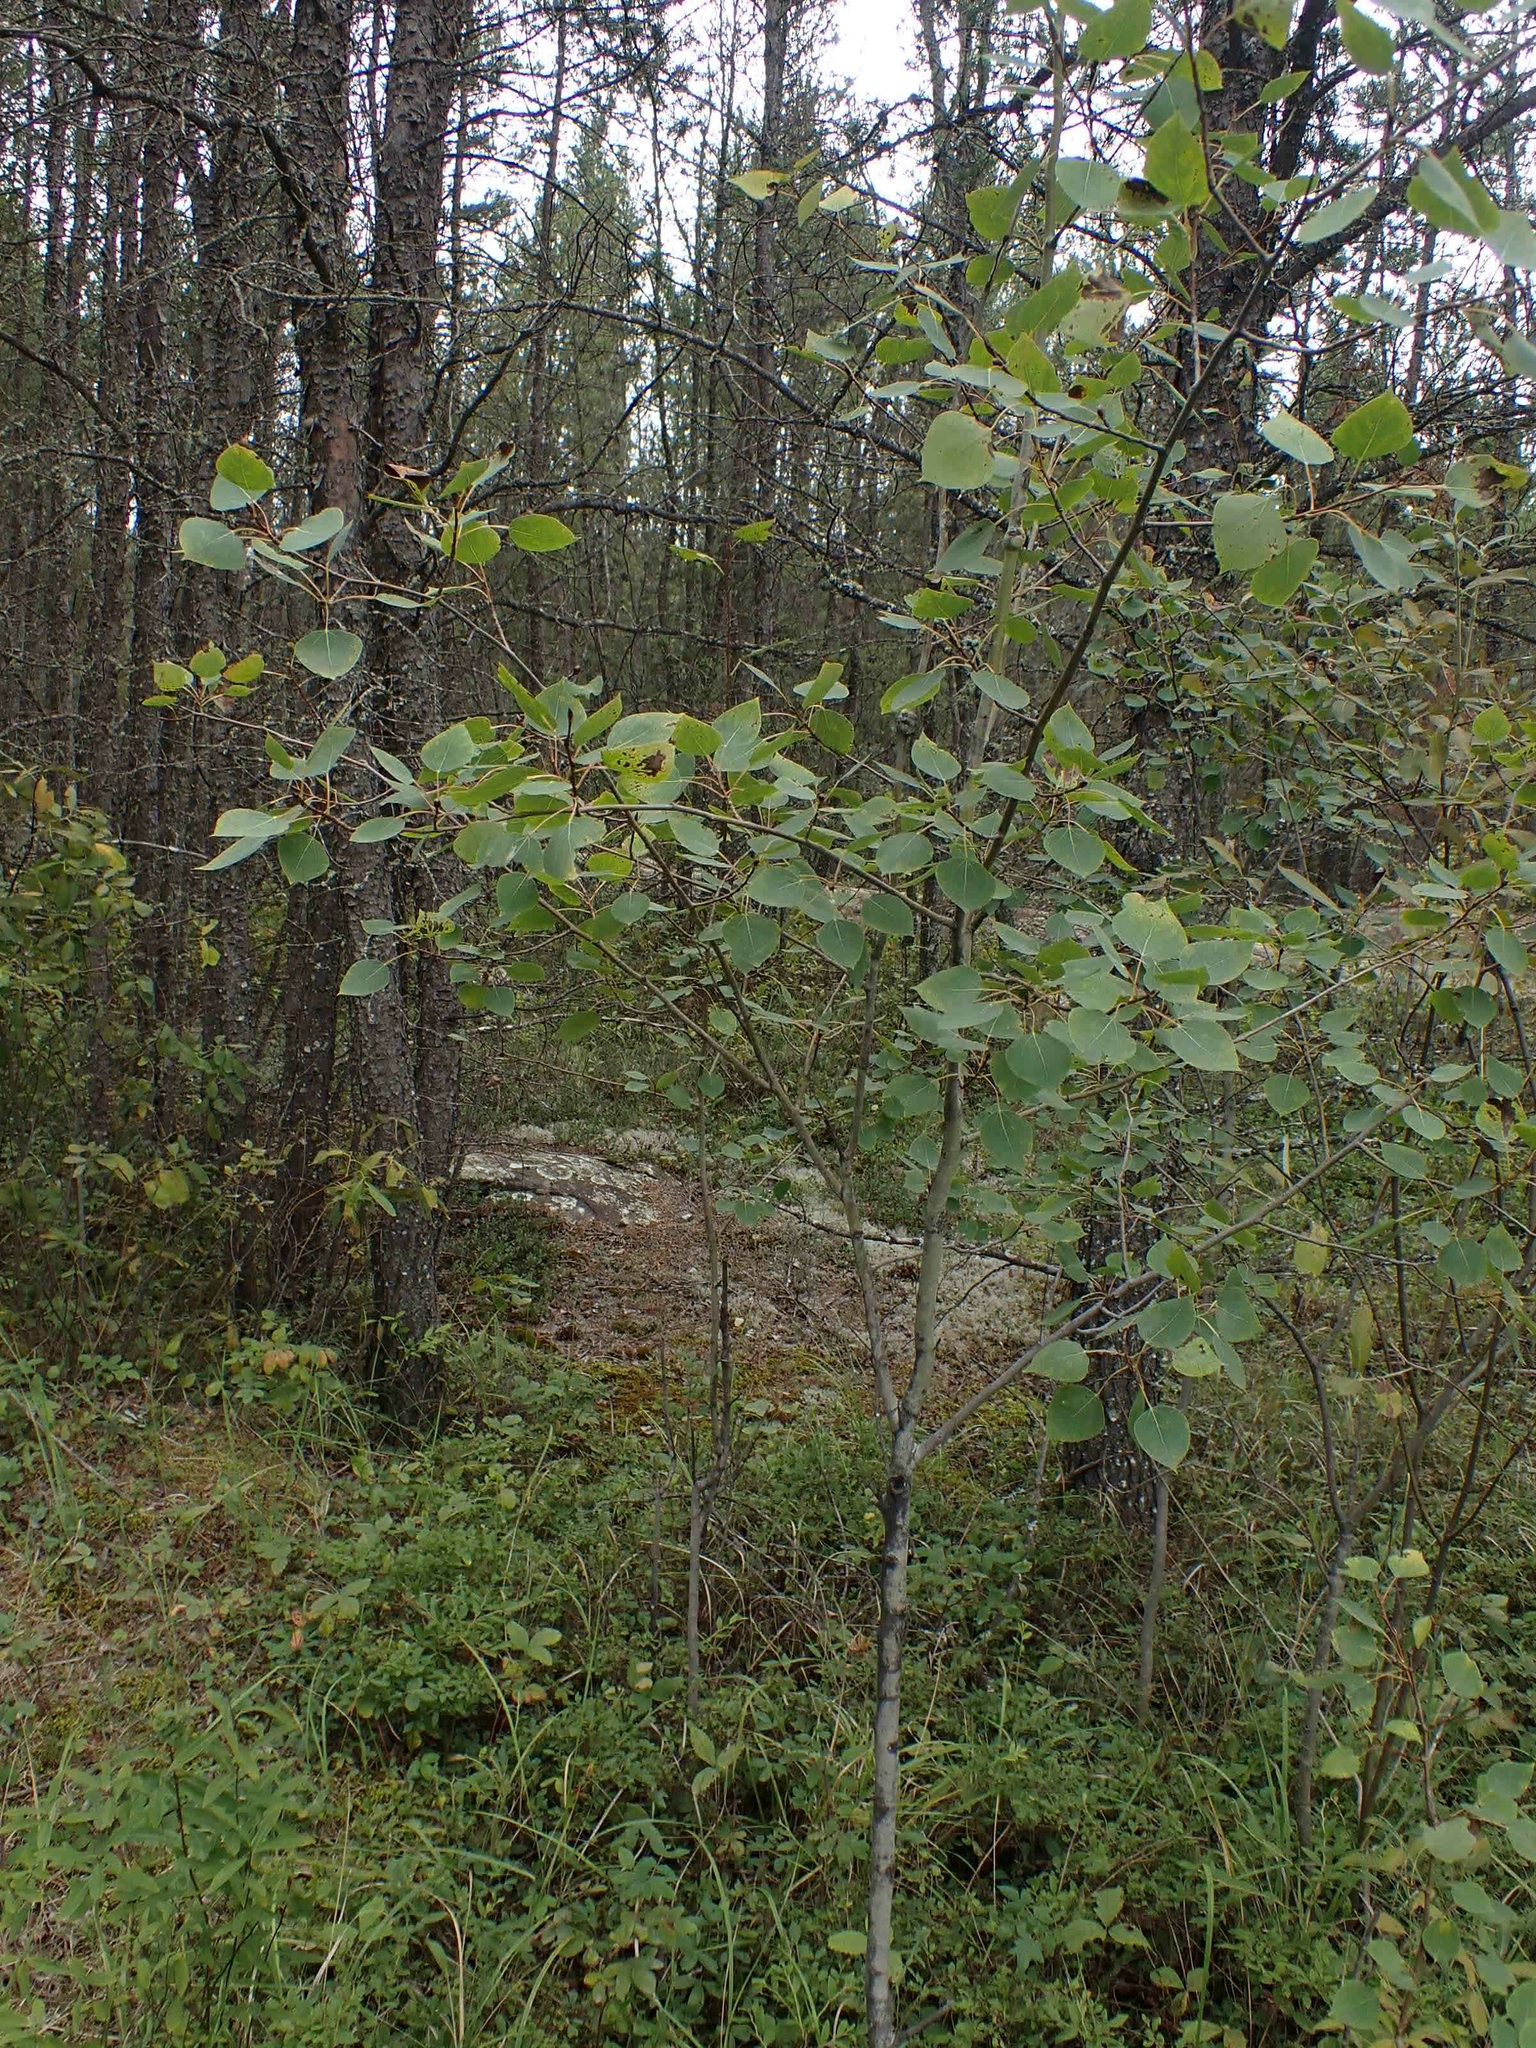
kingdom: Plantae
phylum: Tracheophyta
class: Magnoliopsida
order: Malpighiales
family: Salicaceae
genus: Populus
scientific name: Populus tremuloides
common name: Quaking aspen
